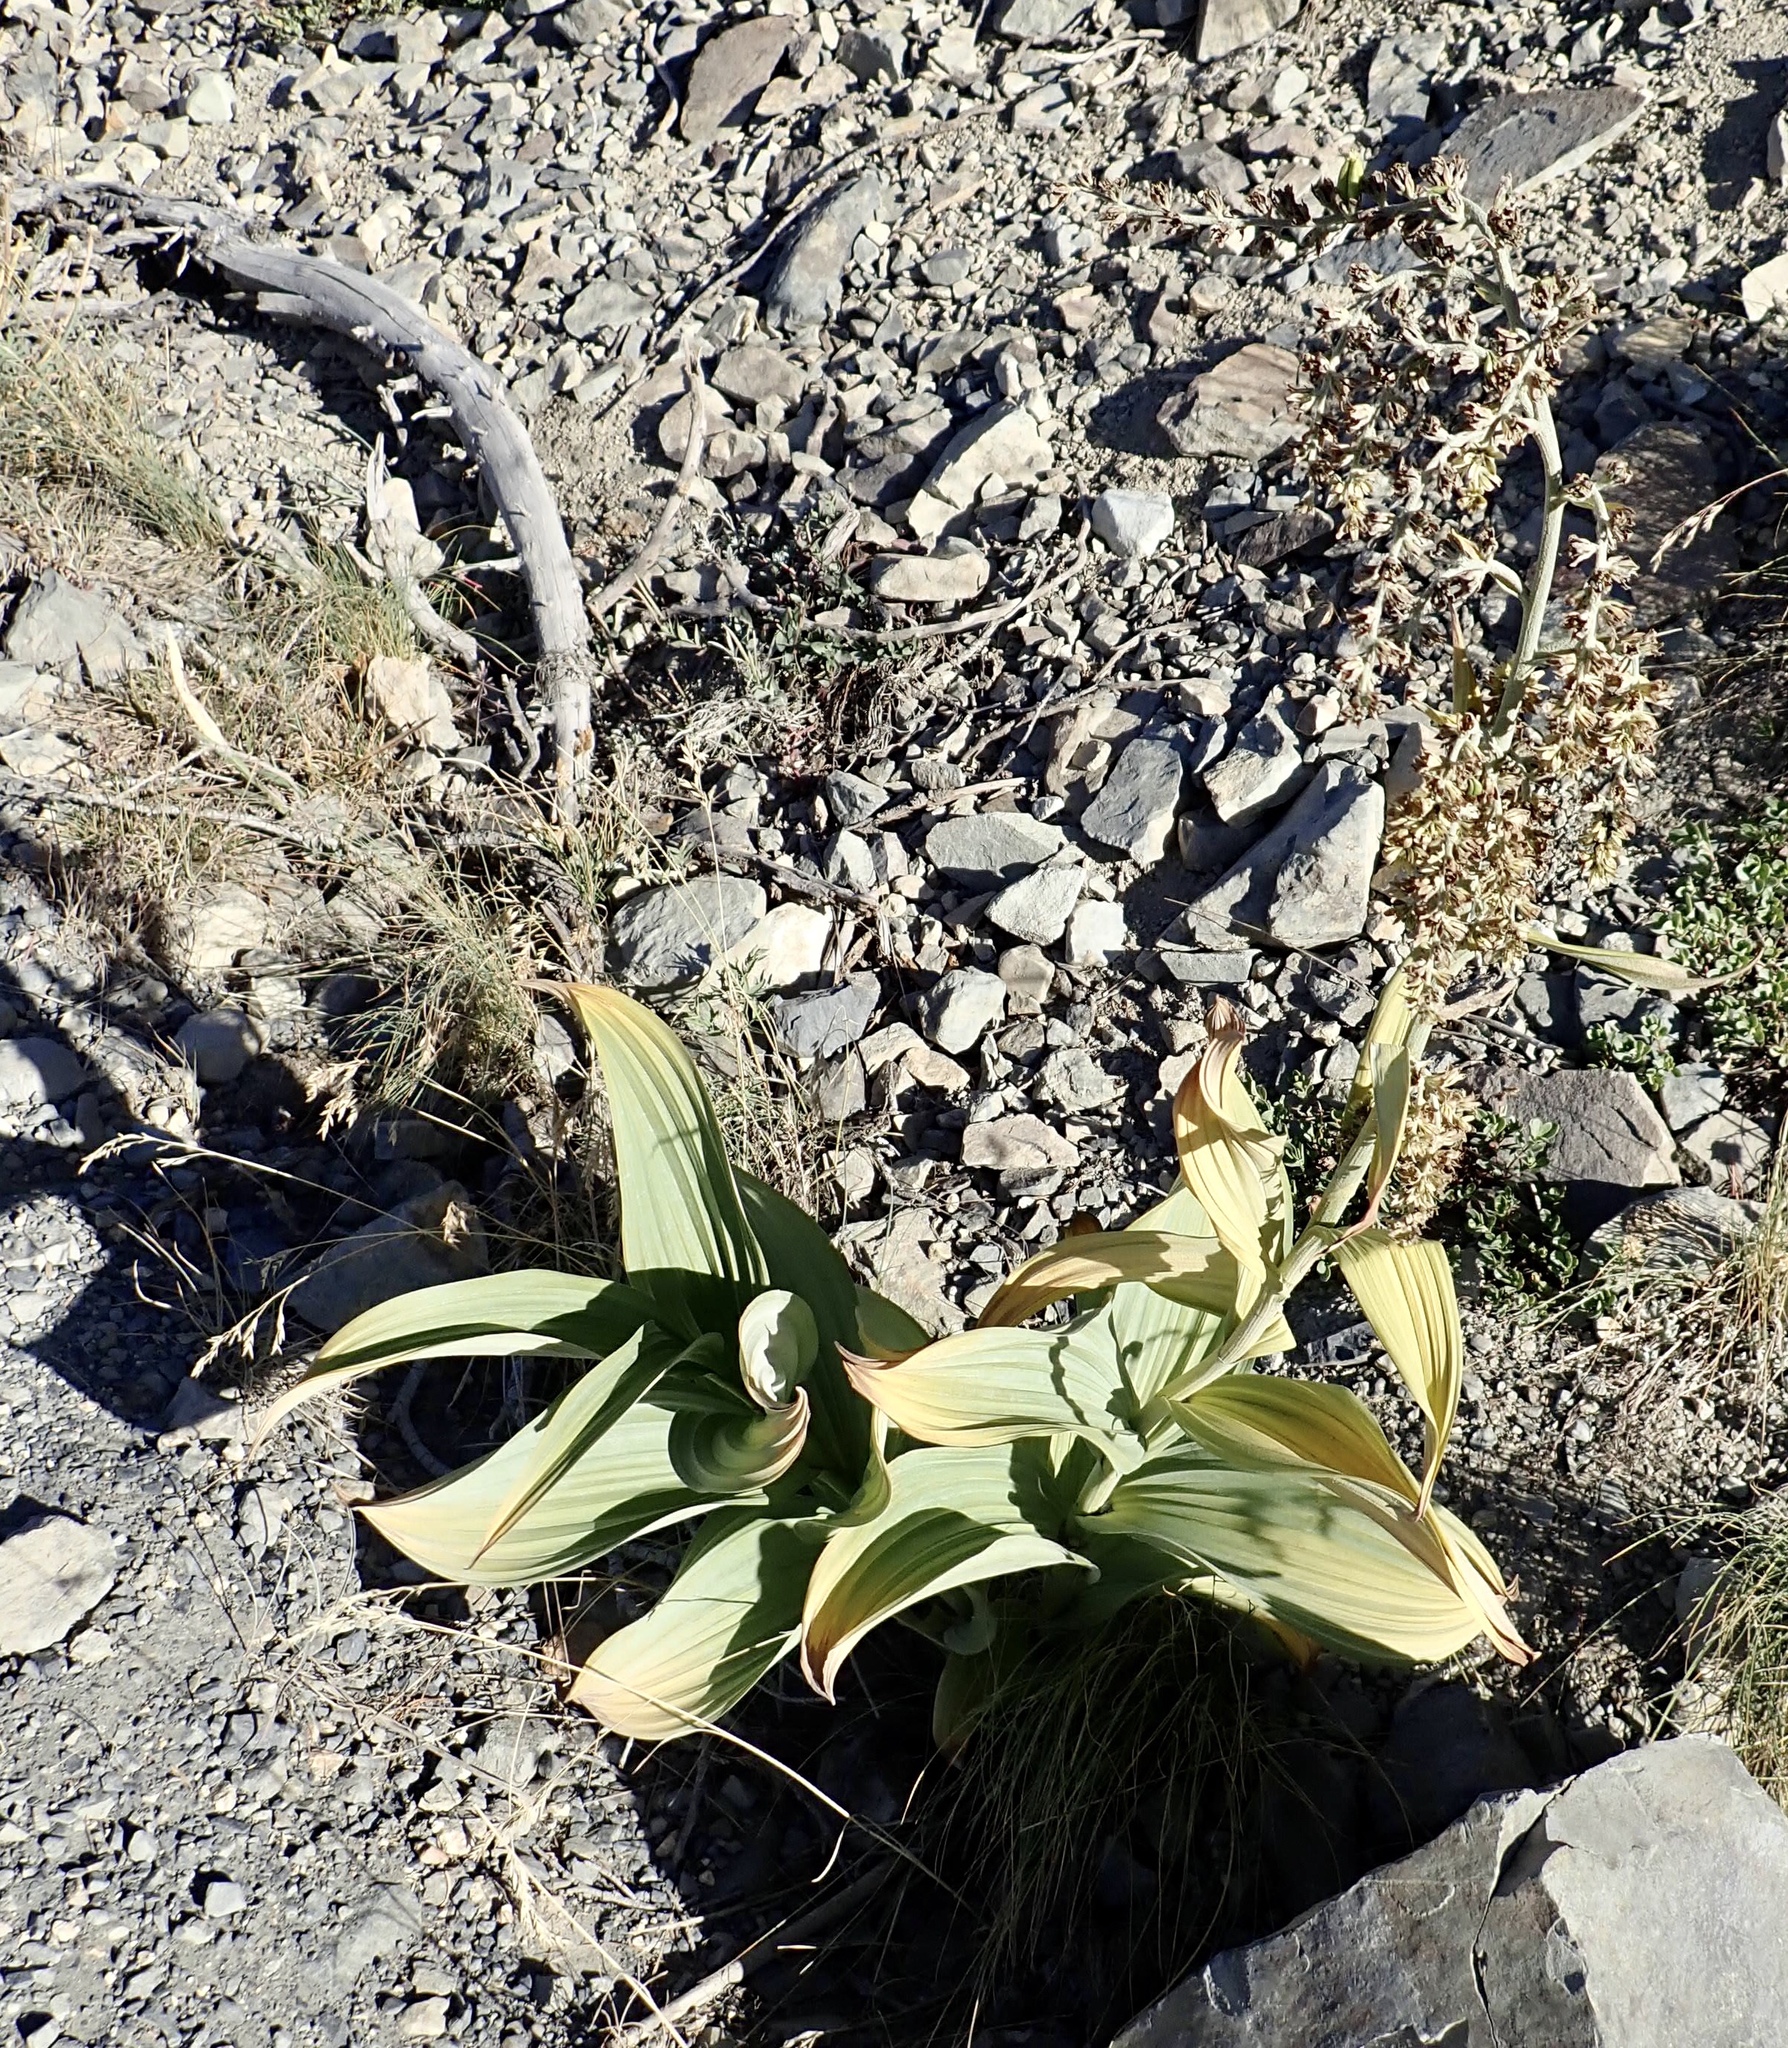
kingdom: Plantae
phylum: Tracheophyta
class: Liliopsida
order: Liliales
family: Melanthiaceae
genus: Veratrum
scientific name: Veratrum viride
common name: American false hellebore
